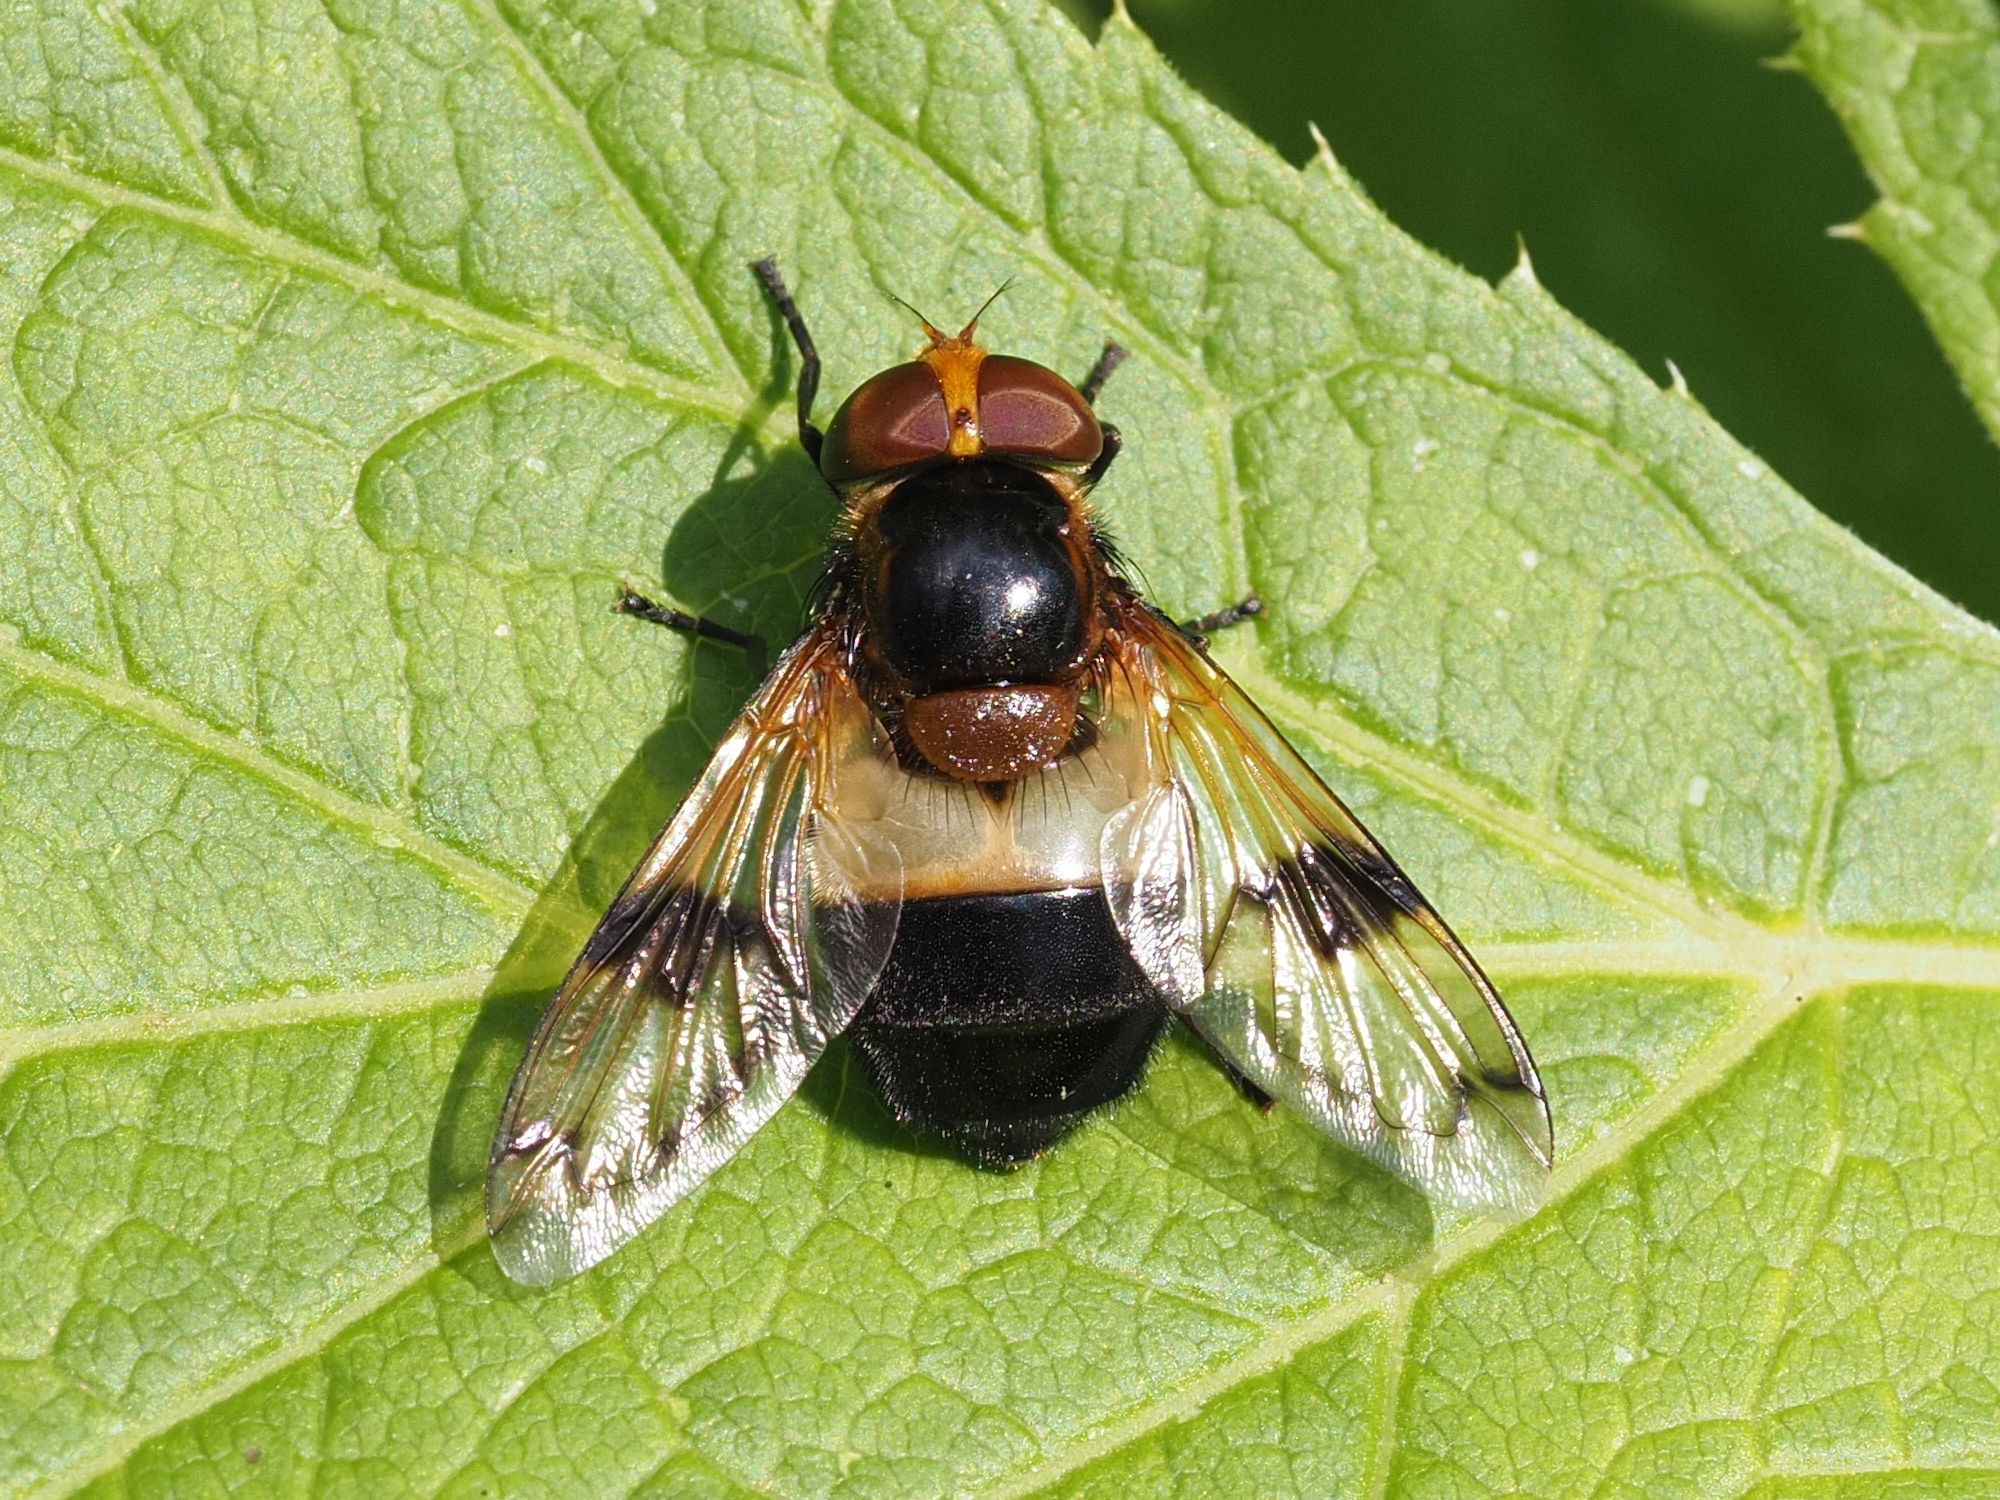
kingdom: Animalia
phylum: Arthropoda
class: Insecta
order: Diptera
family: Syrphidae
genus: Volucella
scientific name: Volucella pellucens
